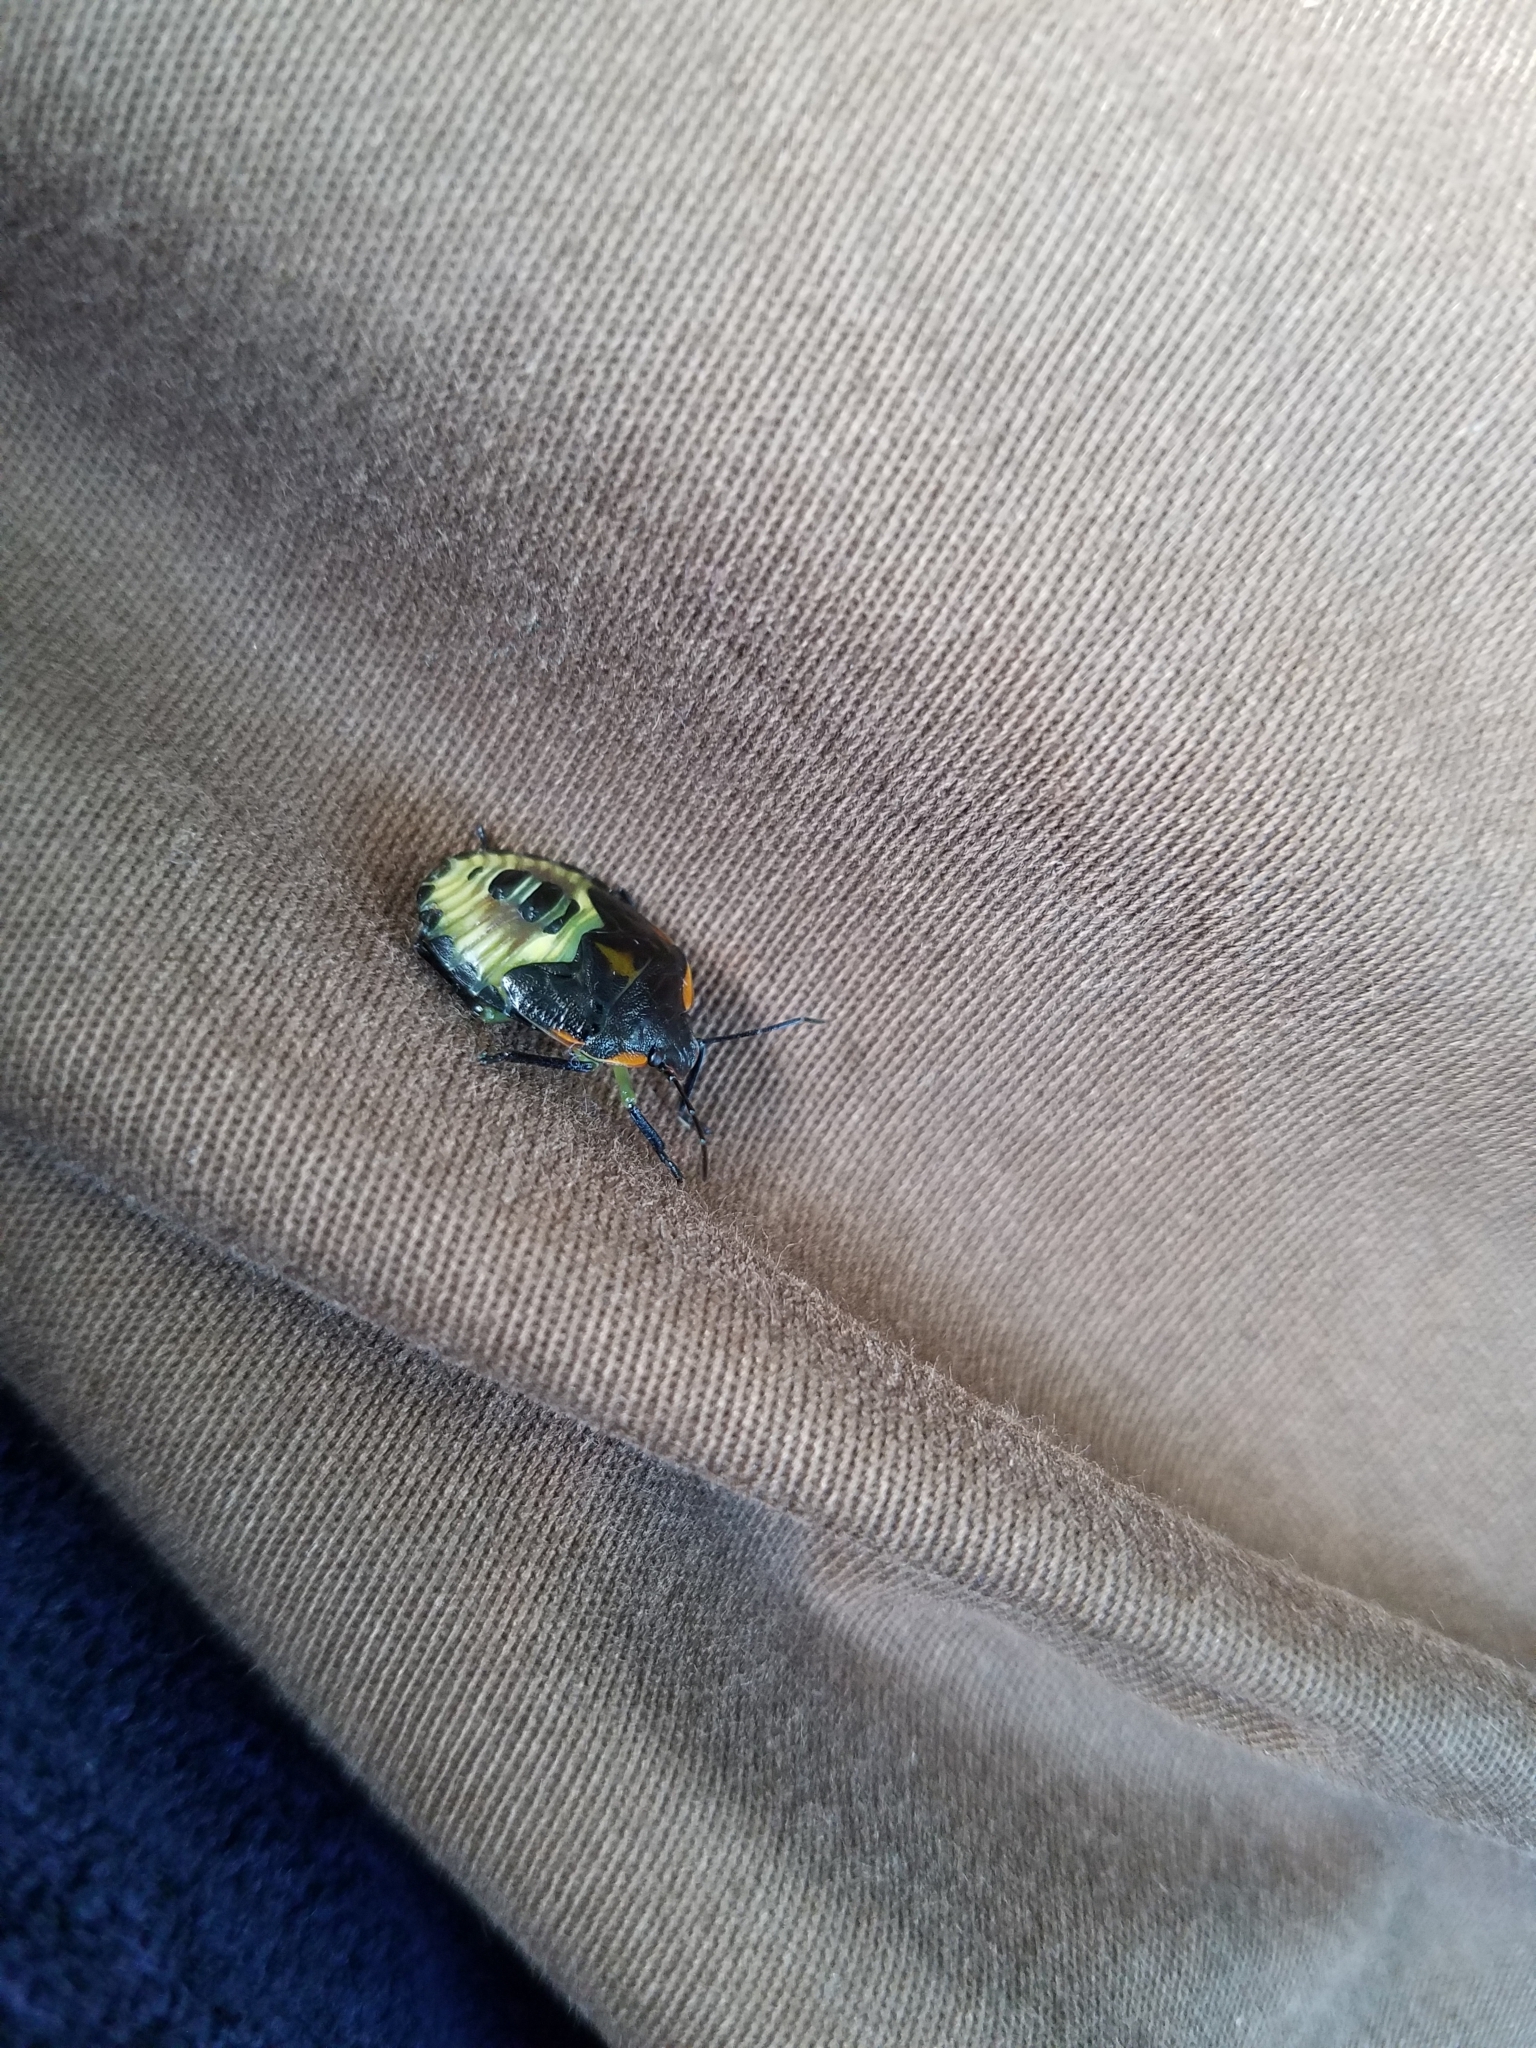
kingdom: Animalia
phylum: Arthropoda
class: Insecta
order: Hemiptera
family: Pentatomidae
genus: Chinavia
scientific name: Chinavia hilaris
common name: Green stink bug
